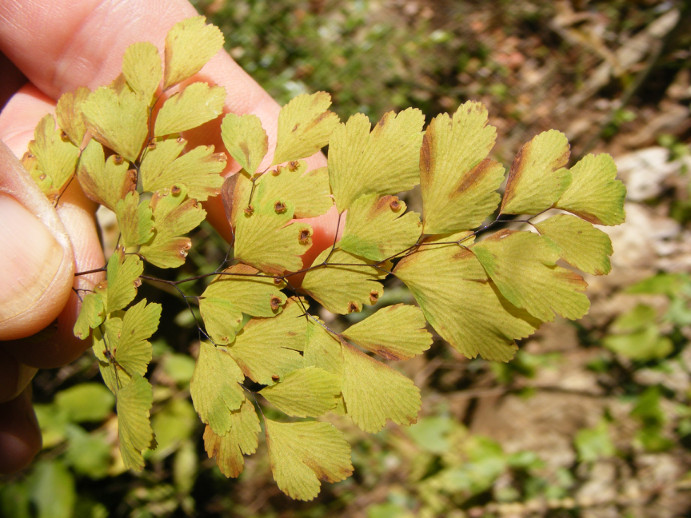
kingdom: Plantae
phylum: Tracheophyta
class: Polypodiopsida
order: Polypodiales
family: Pteridaceae
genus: Adiantum
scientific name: Adiantum raddianum
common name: Delta maidenhair fern
